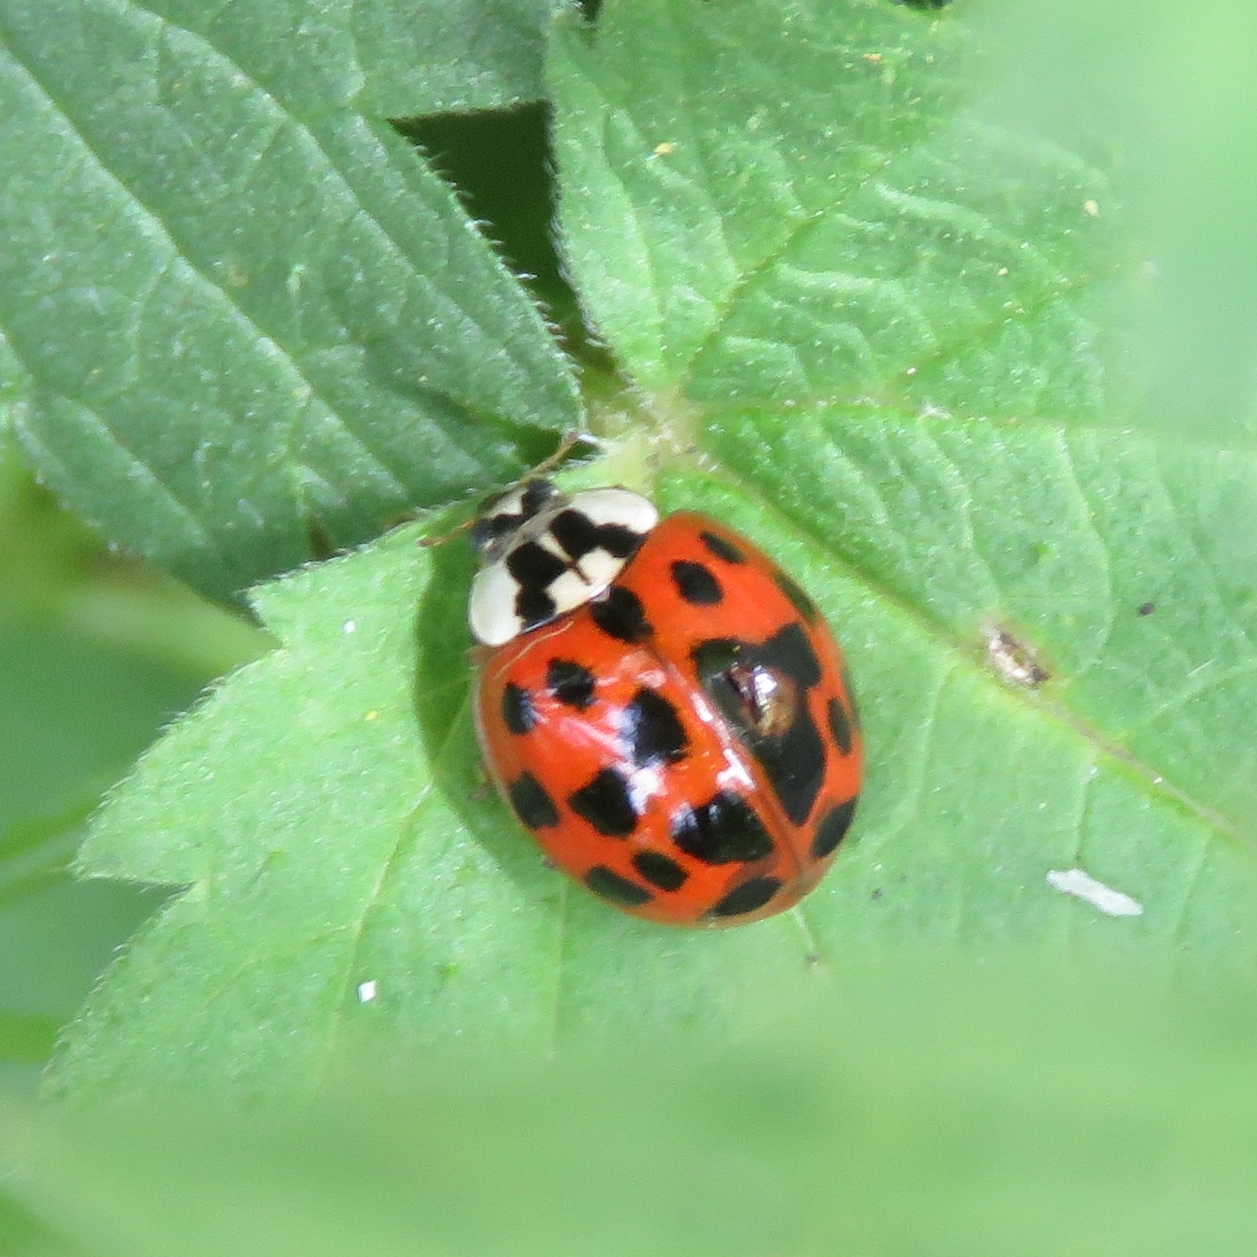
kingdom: Animalia
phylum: Arthropoda
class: Insecta
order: Coleoptera
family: Coccinellidae
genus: Harmonia
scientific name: Harmonia axyridis
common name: Harlequin ladybird
